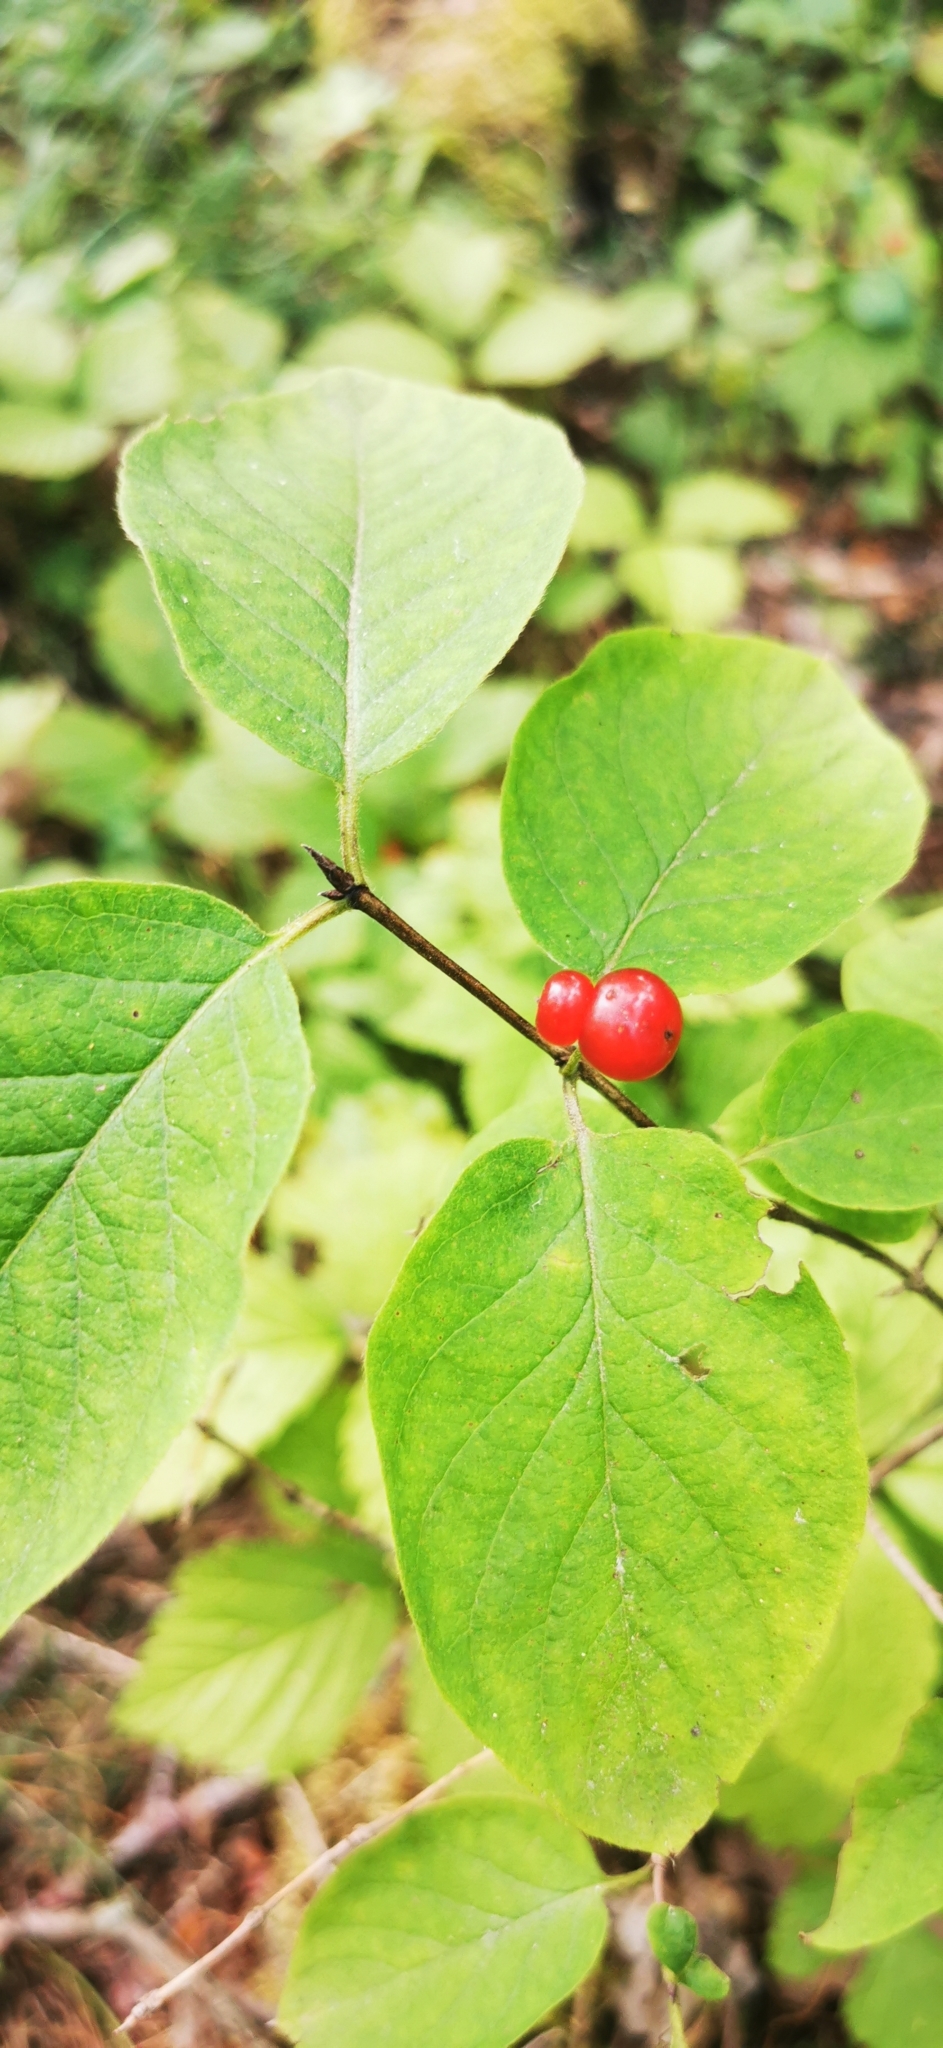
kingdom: Plantae
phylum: Tracheophyta
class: Magnoliopsida
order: Dipsacales
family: Caprifoliaceae
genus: Lonicera
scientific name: Lonicera xylosteum
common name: Fly honeysuckle
